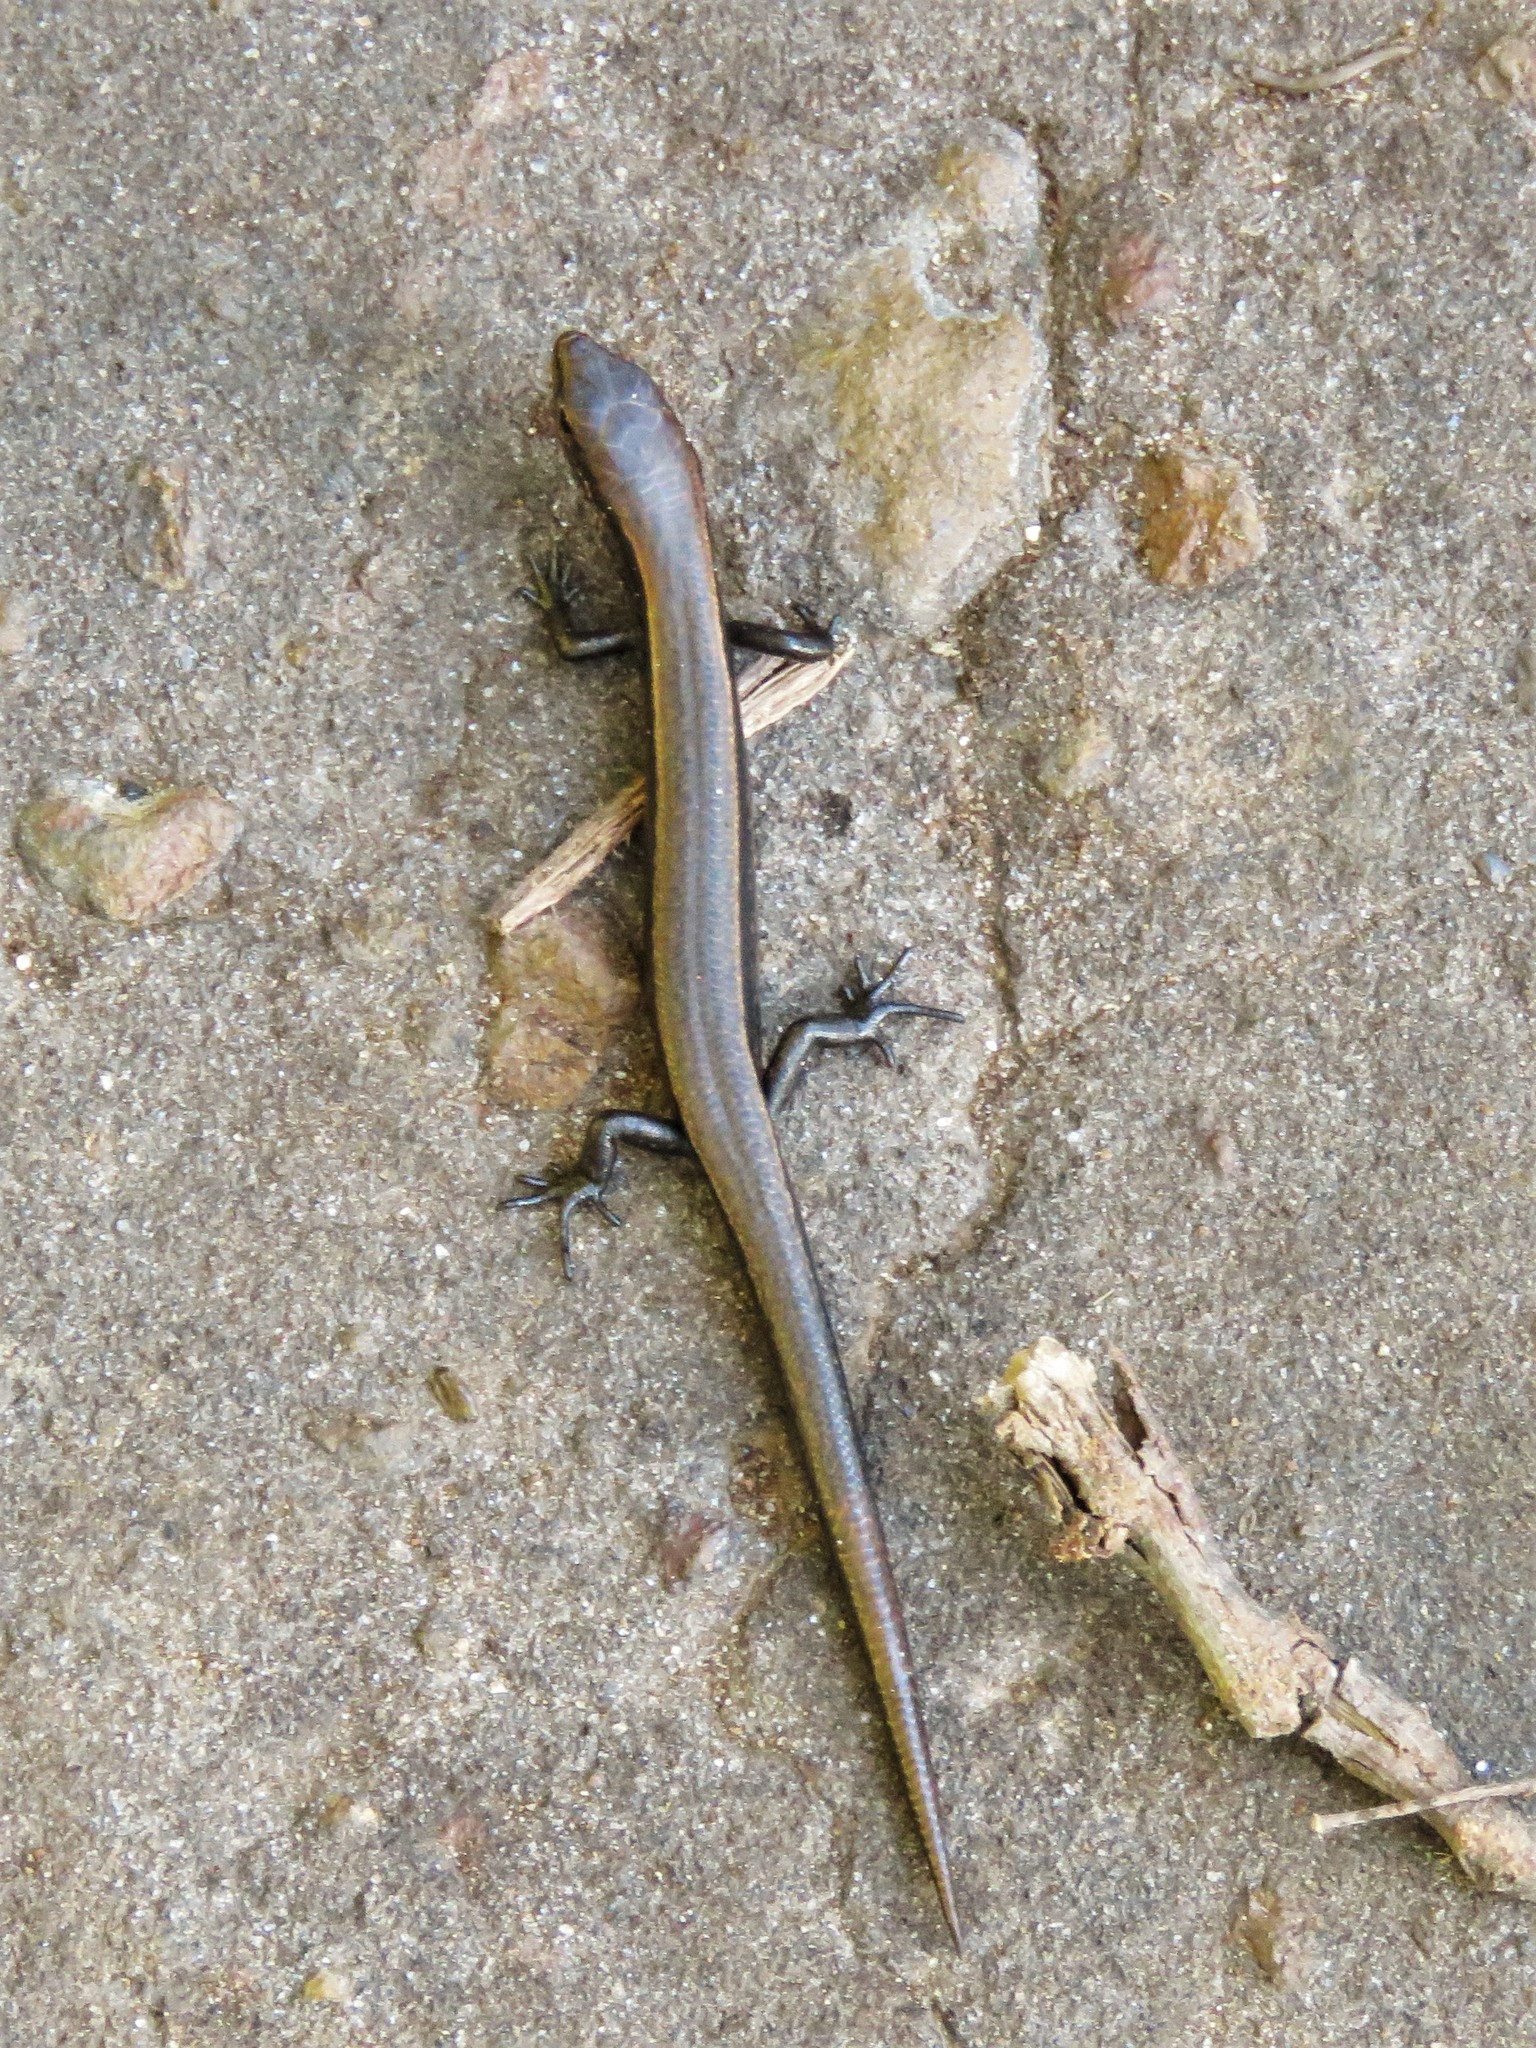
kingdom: Animalia
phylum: Chordata
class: Squamata
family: Scincidae
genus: Scincella
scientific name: Scincella lateralis
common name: Ground skink
